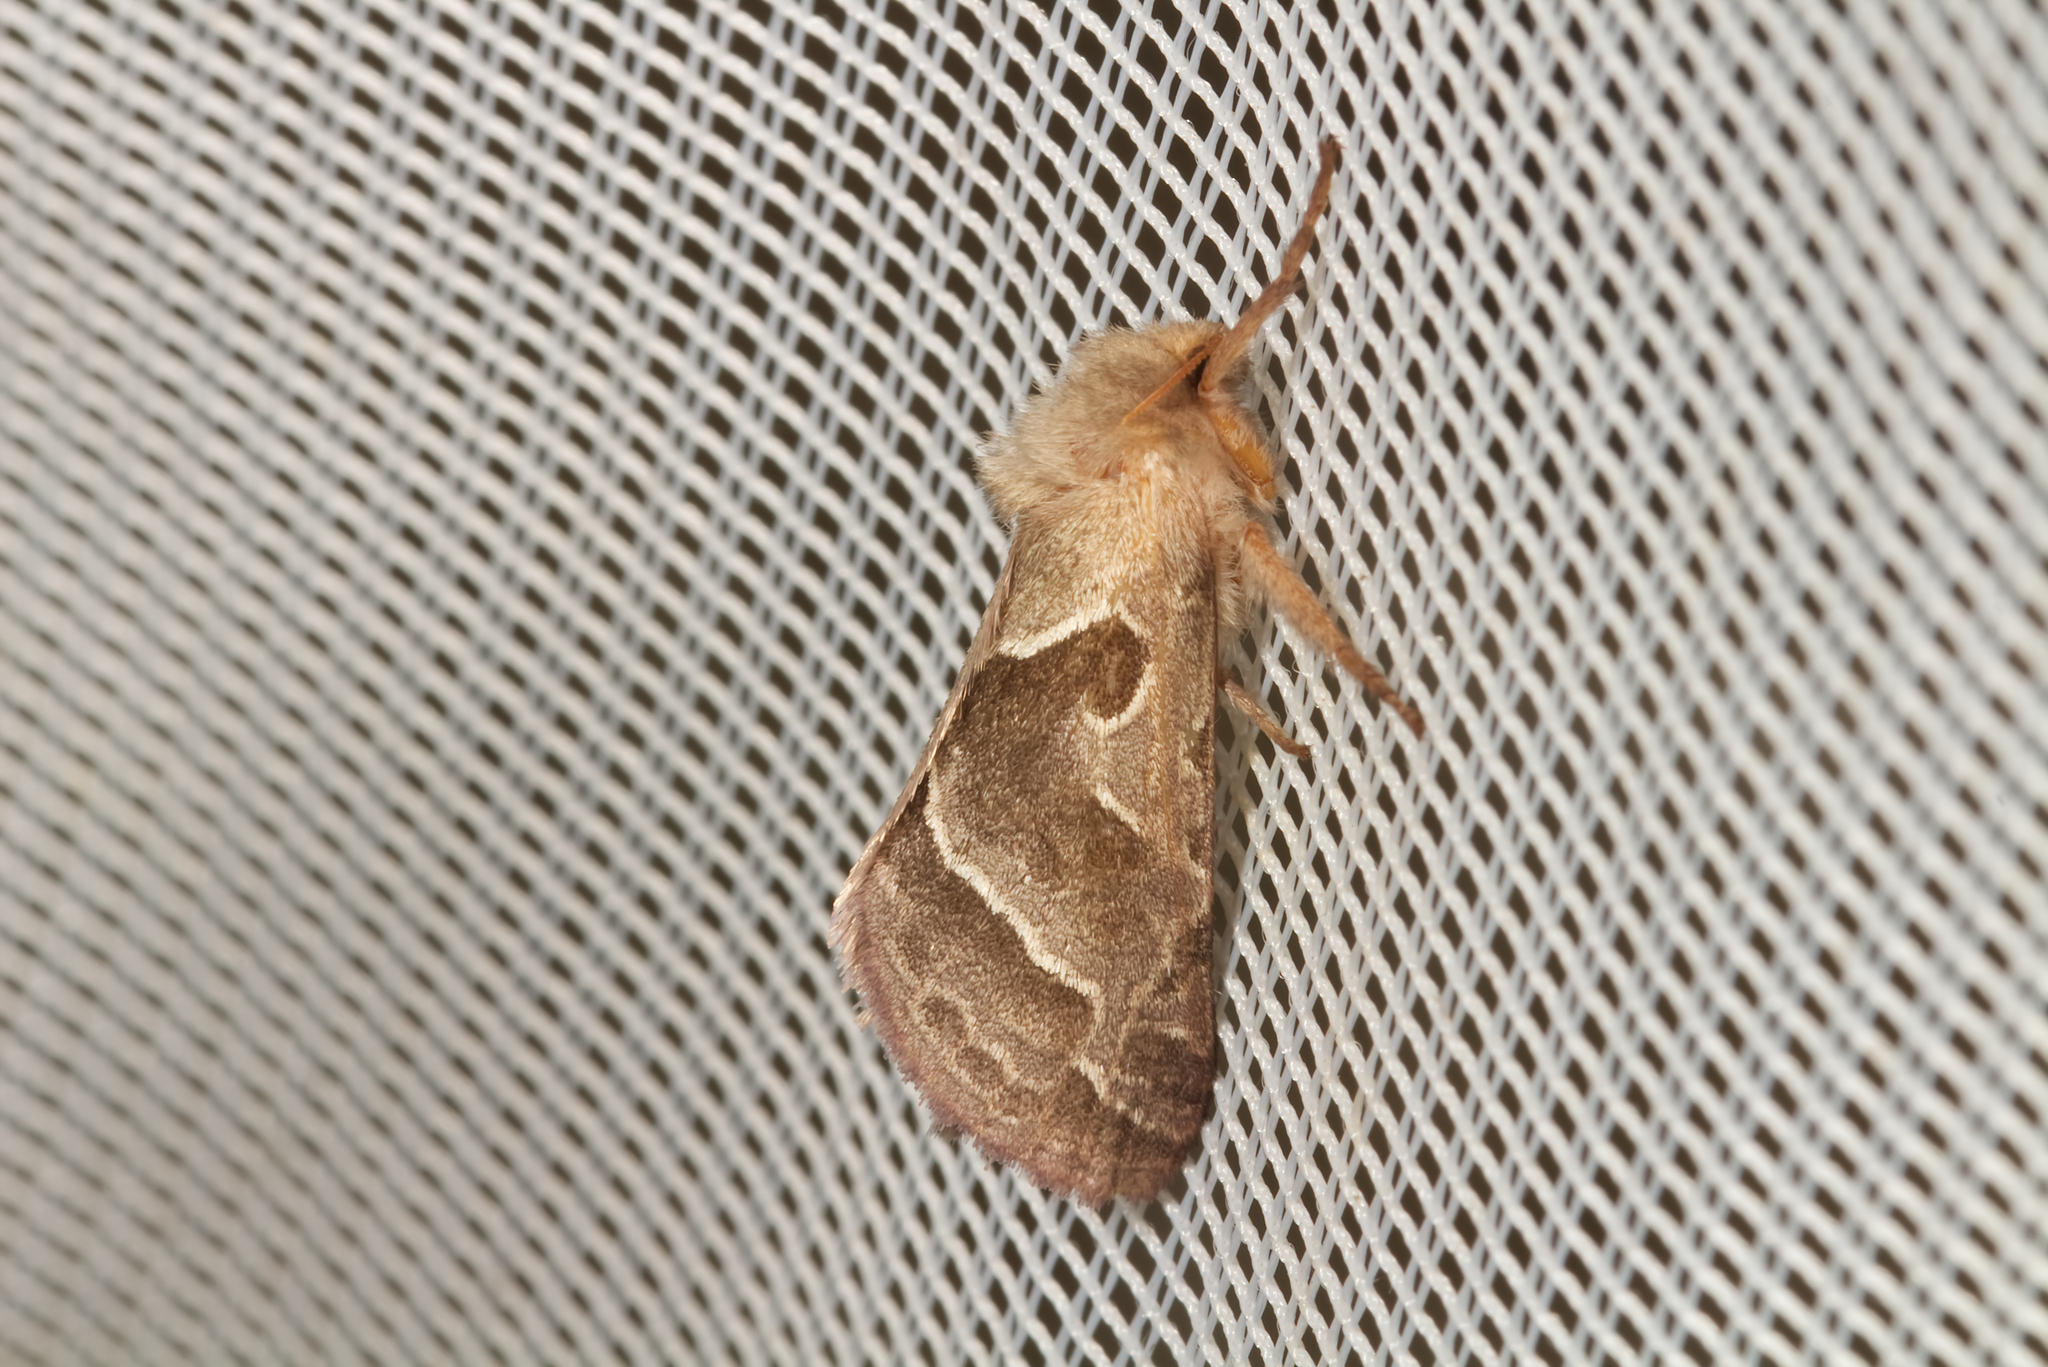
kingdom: Animalia
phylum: Arthropoda
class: Insecta
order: Lepidoptera
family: Hepialidae
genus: Triodia
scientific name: Triodia sylvina
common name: Orange swift
